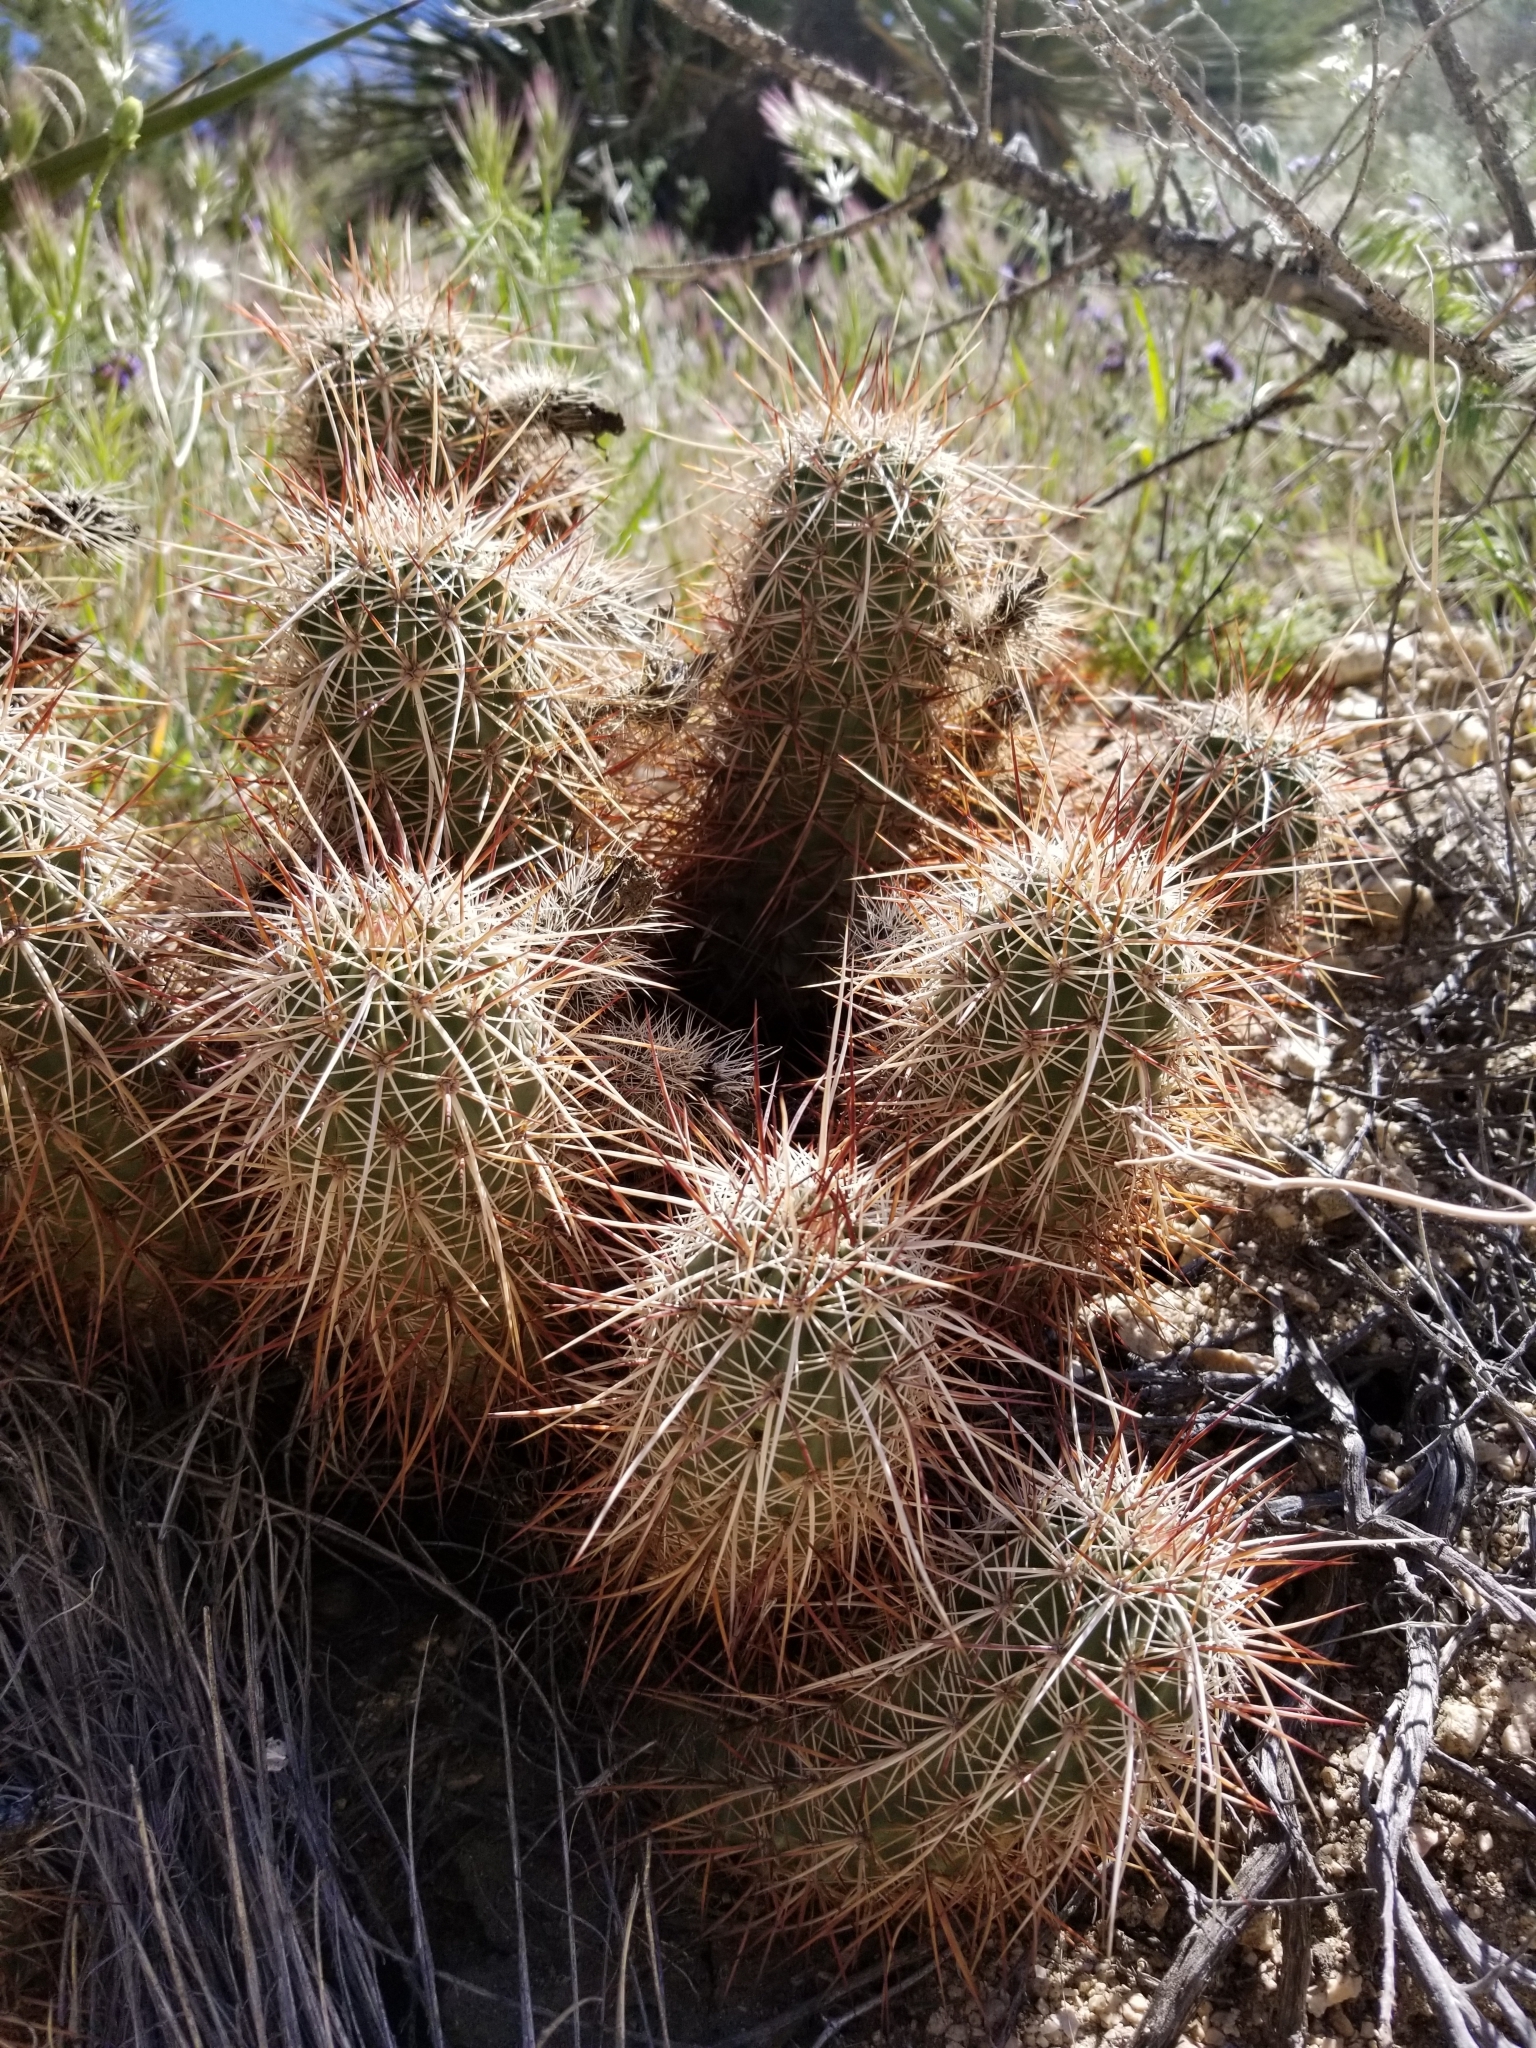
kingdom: Plantae
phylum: Tracheophyta
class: Magnoliopsida
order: Caryophyllales
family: Cactaceae
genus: Echinocereus
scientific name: Echinocereus engelmannii
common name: Engelmann's hedgehog cactus
